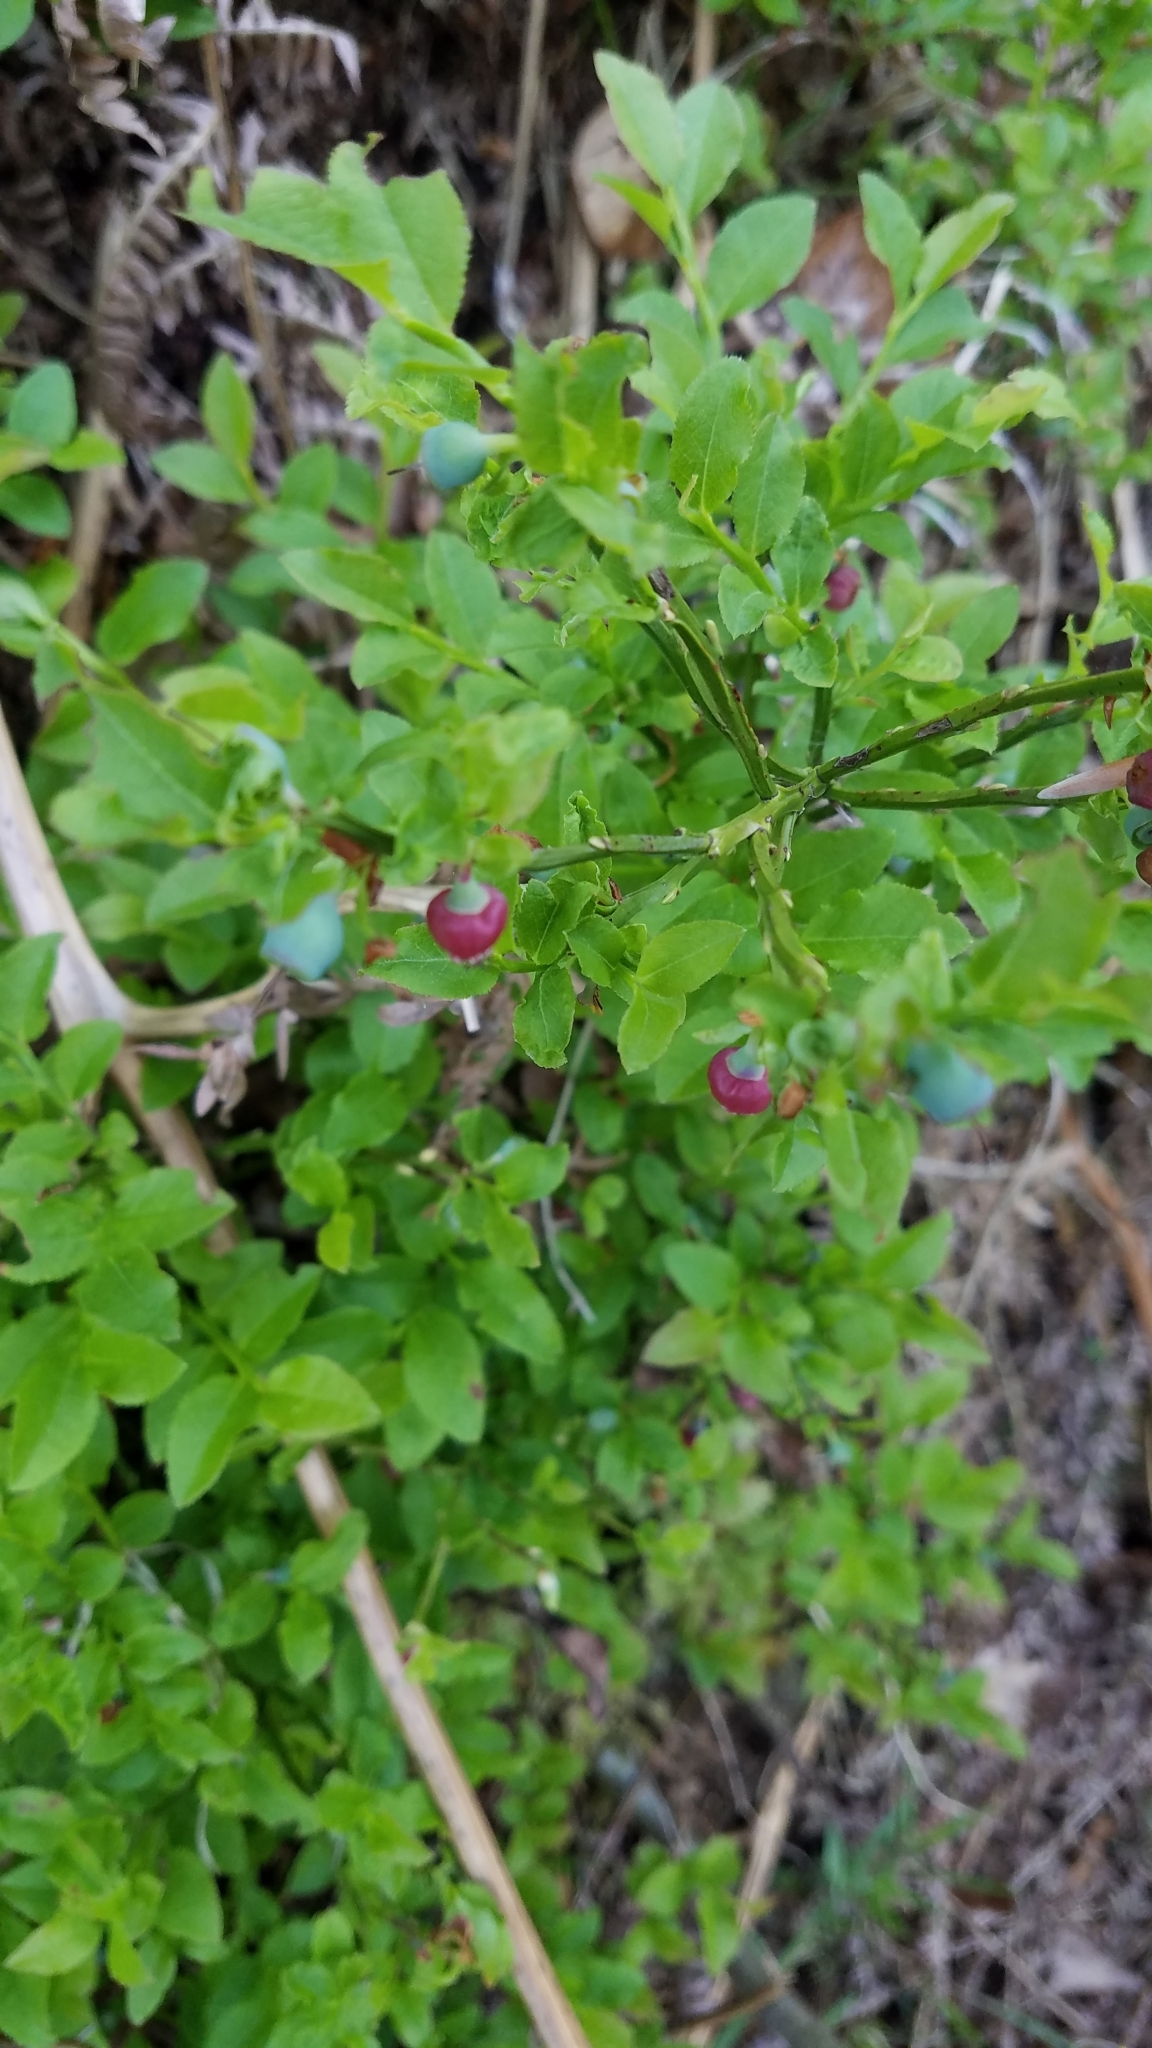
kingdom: Plantae
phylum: Tracheophyta
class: Magnoliopsida
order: Ericales
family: Ericaceae
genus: Vaccinium
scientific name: Vaccinium myrtillus
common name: Bilberry
